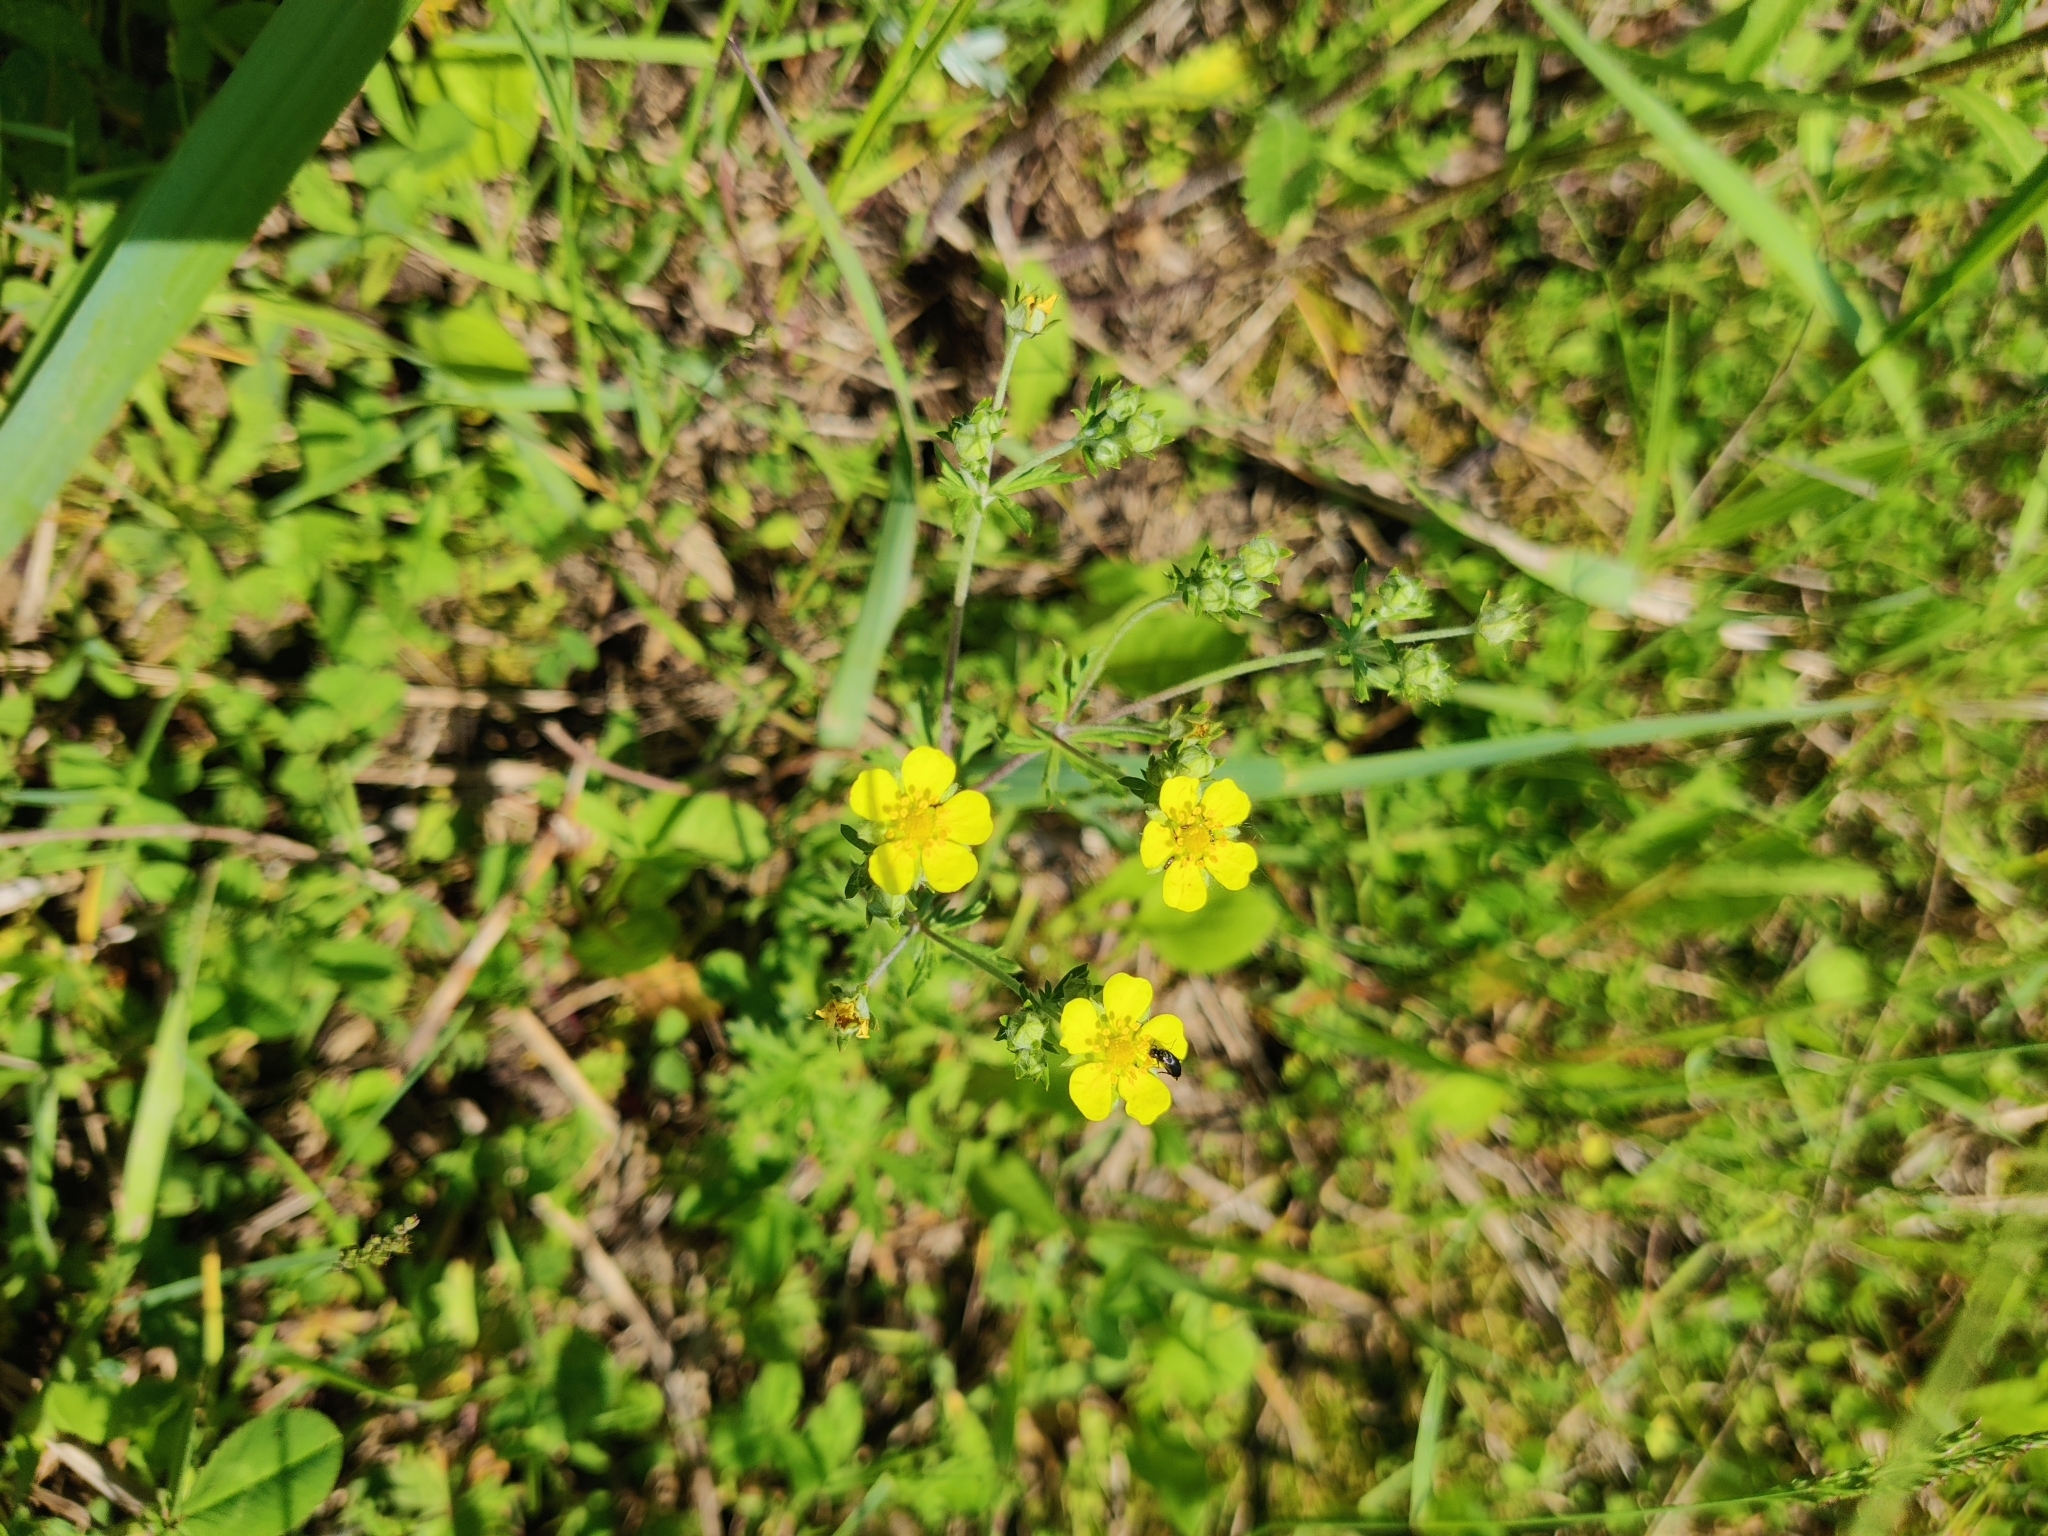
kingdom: Plantae
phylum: Tracheophyta
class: Magnoliopsida
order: Rosales
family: Rosaceae
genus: Potentilla
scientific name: Potentilla argentea
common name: Hoary cinquefoil
